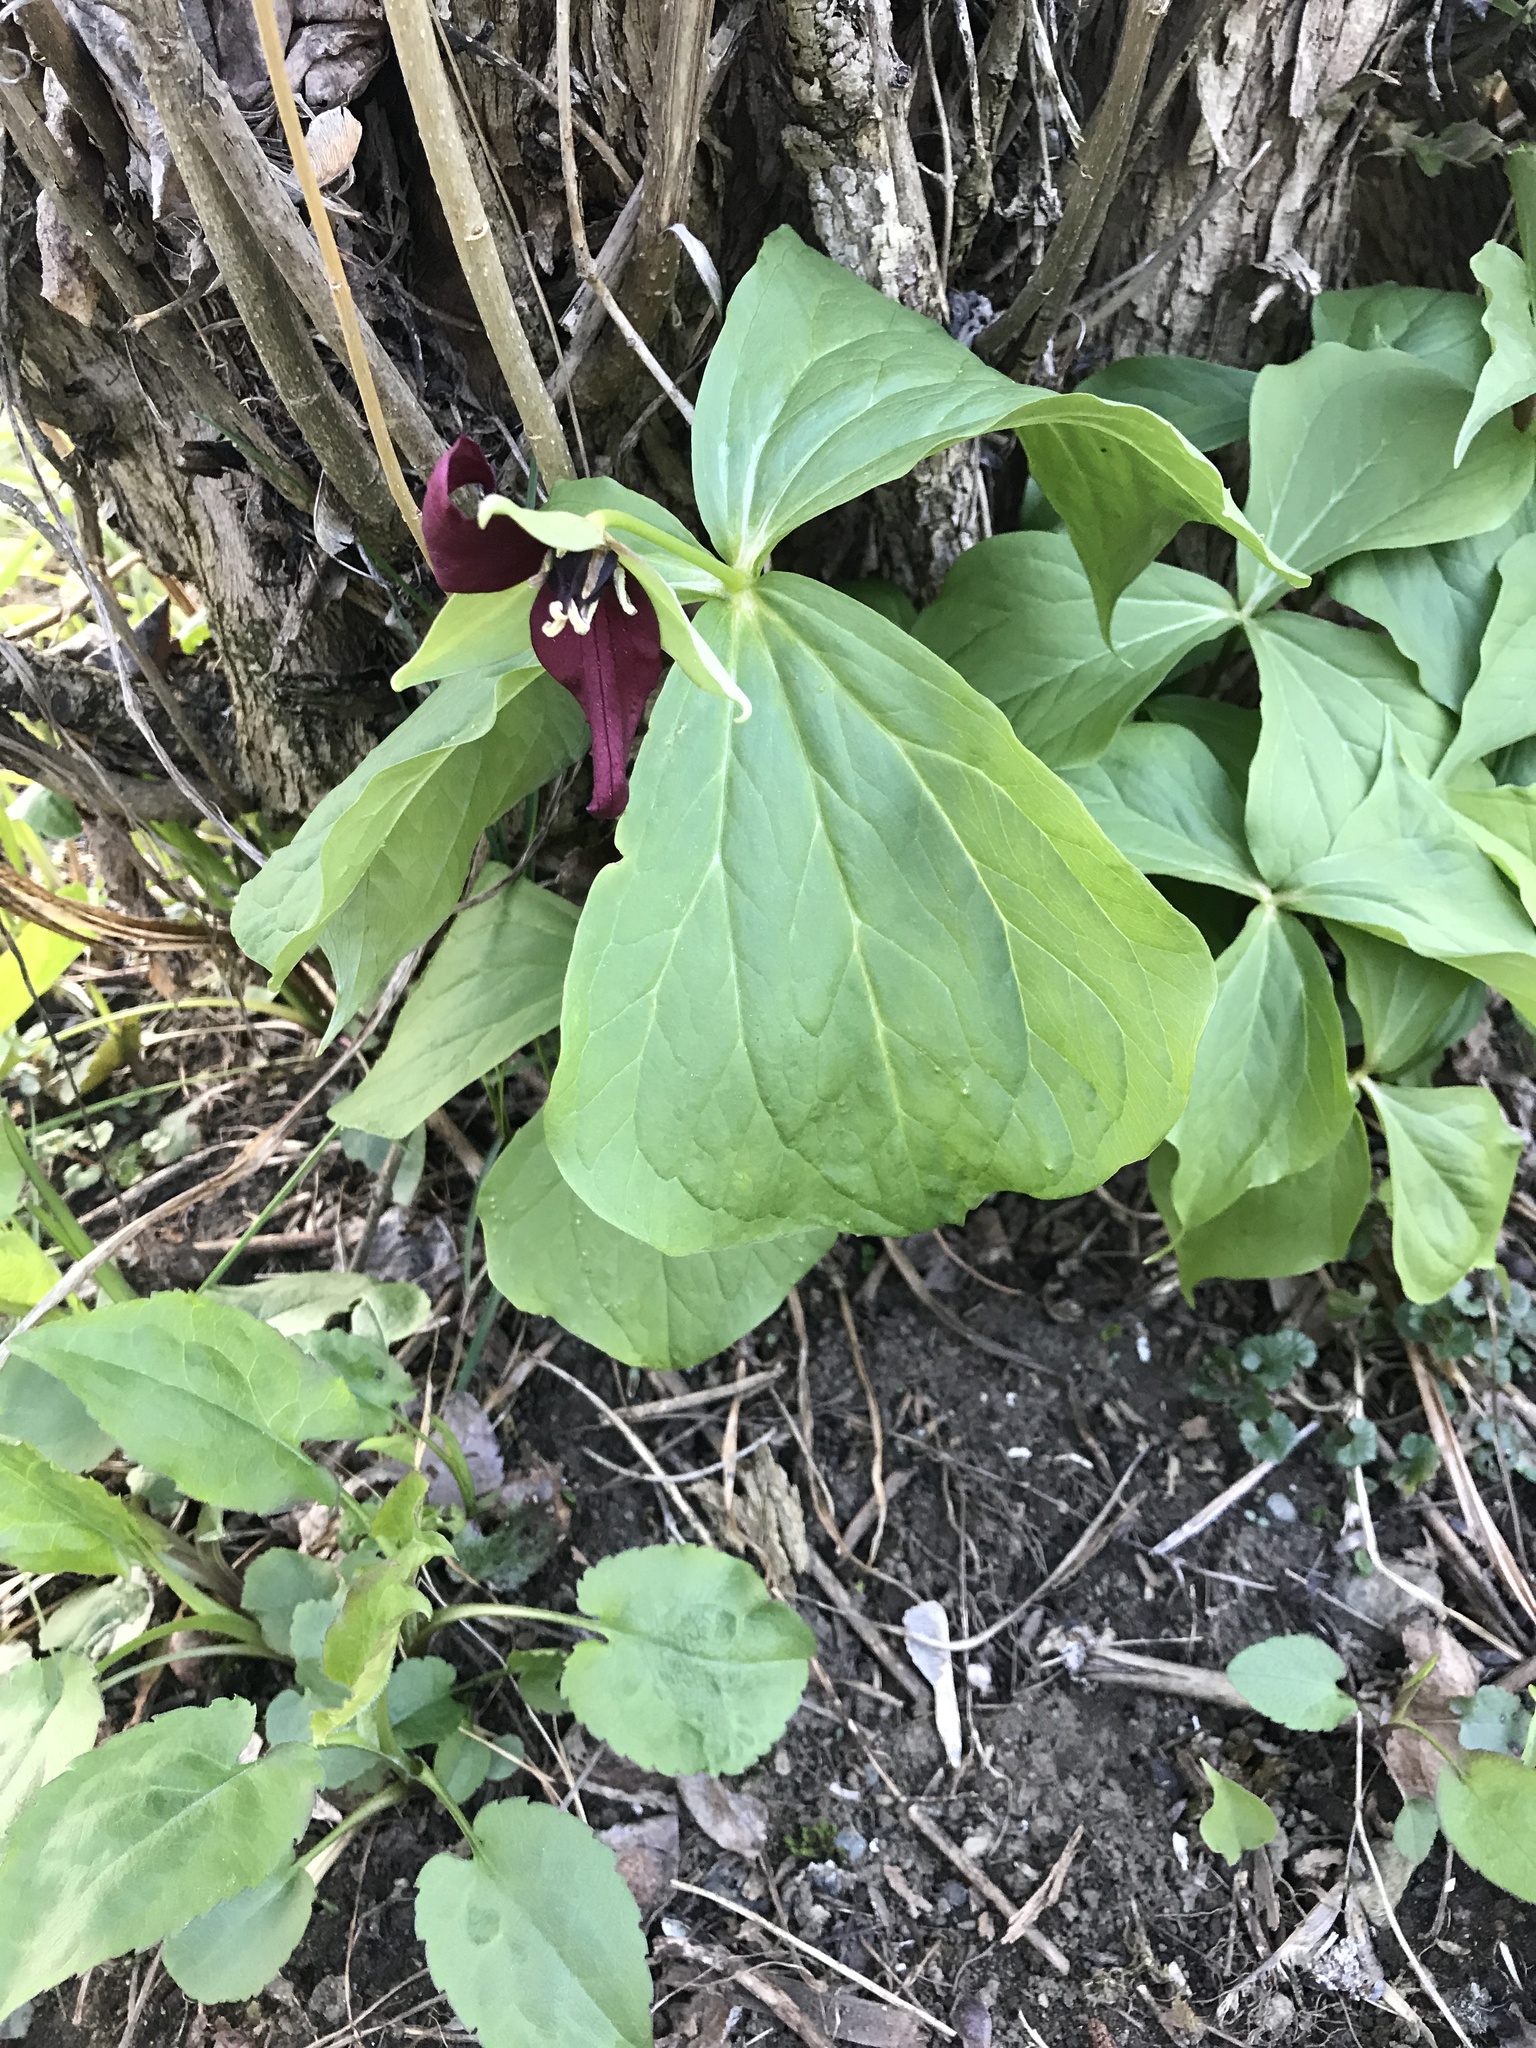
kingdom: Plantae
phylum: Tracheophyta
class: Liliopsida
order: Liliales
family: Melanthiaceae
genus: Trillium
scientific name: Trillium erectum
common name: Purple trillium
